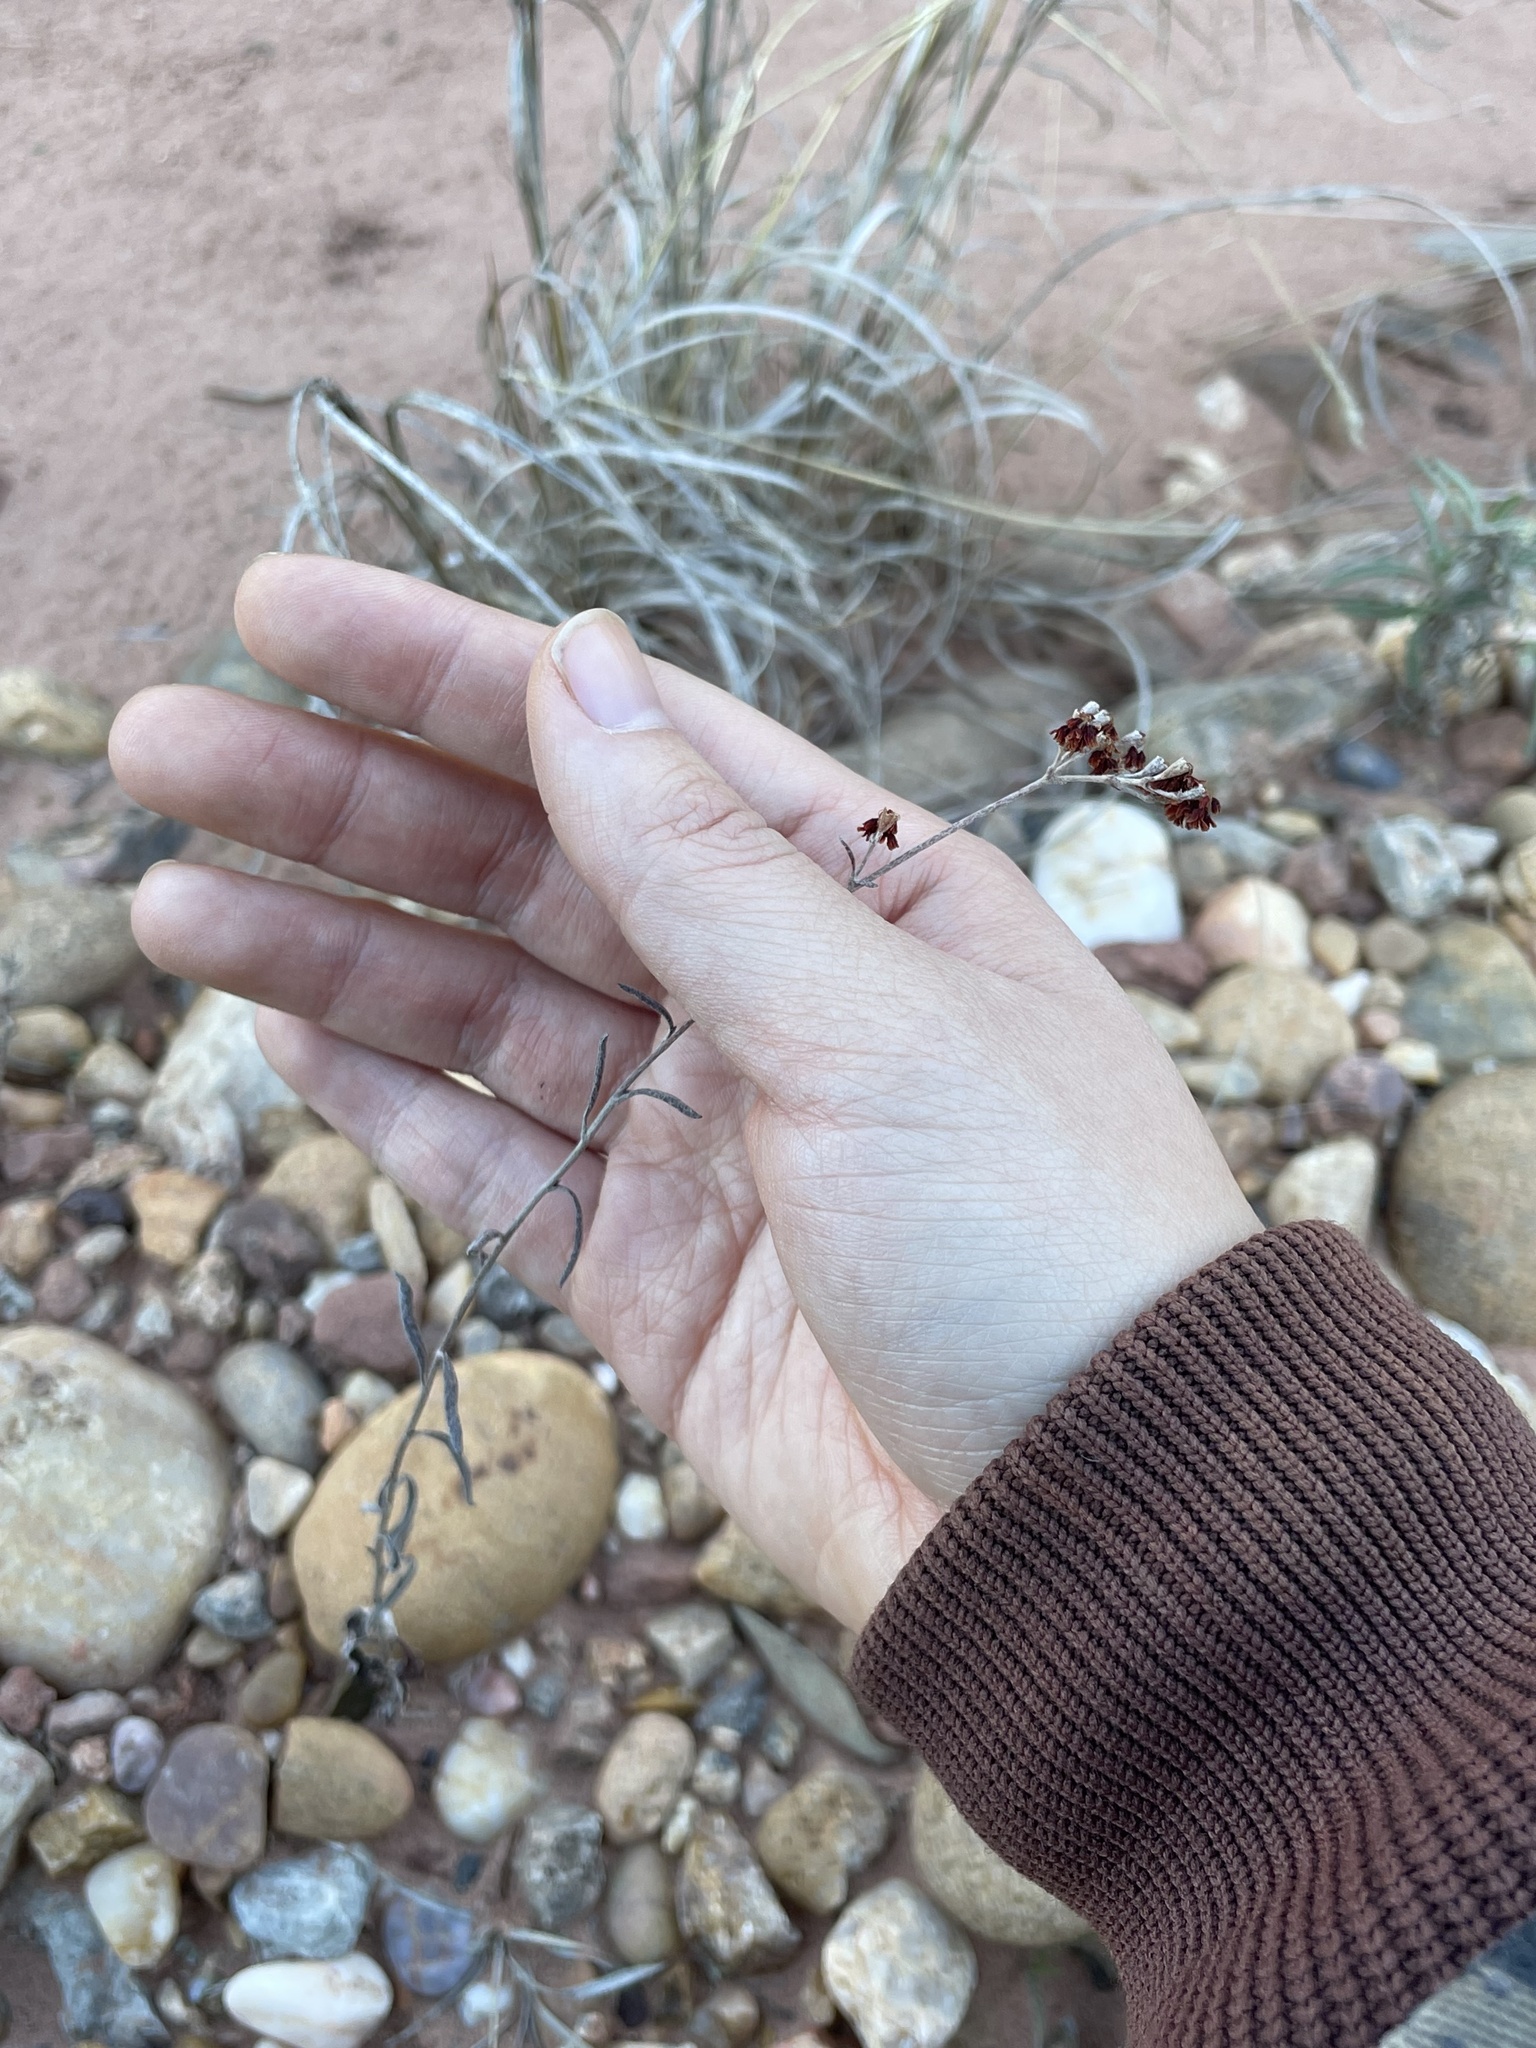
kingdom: Plantae
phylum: Tracheophyta
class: Magnoliopsida
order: Caryophyllales
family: Polygonaceae
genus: Eriogonum
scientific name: Eriogonum annuum
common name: Annual wild buckwheat
